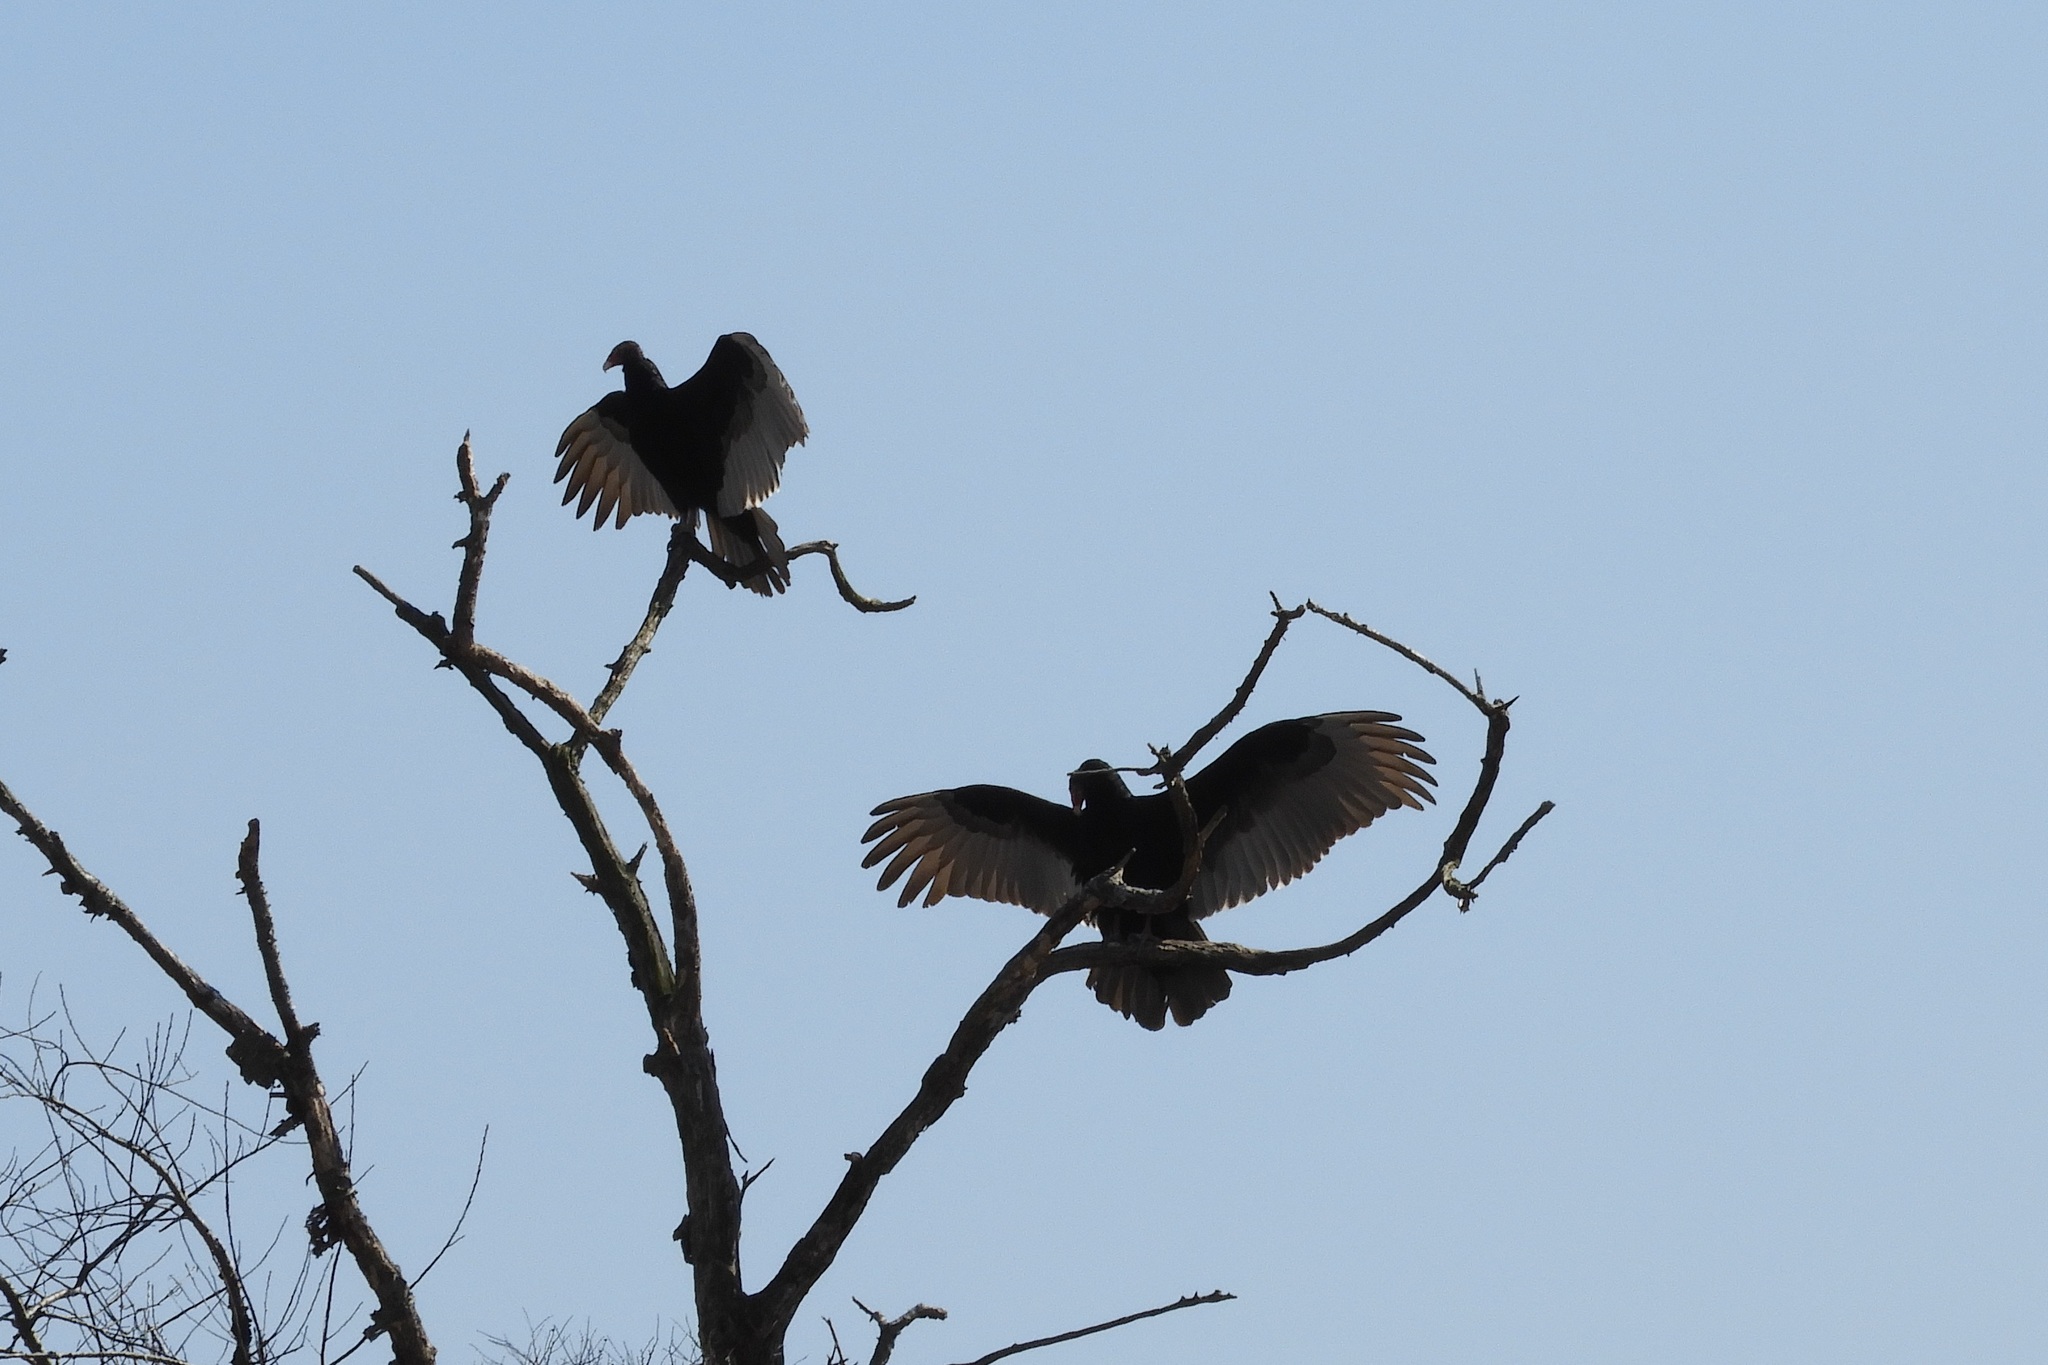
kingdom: Animalia
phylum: Chordata
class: Aves
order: Accipitriformes
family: Cathartidae
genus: Cathartes
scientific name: Cathartes aura
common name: Turkey vulture
